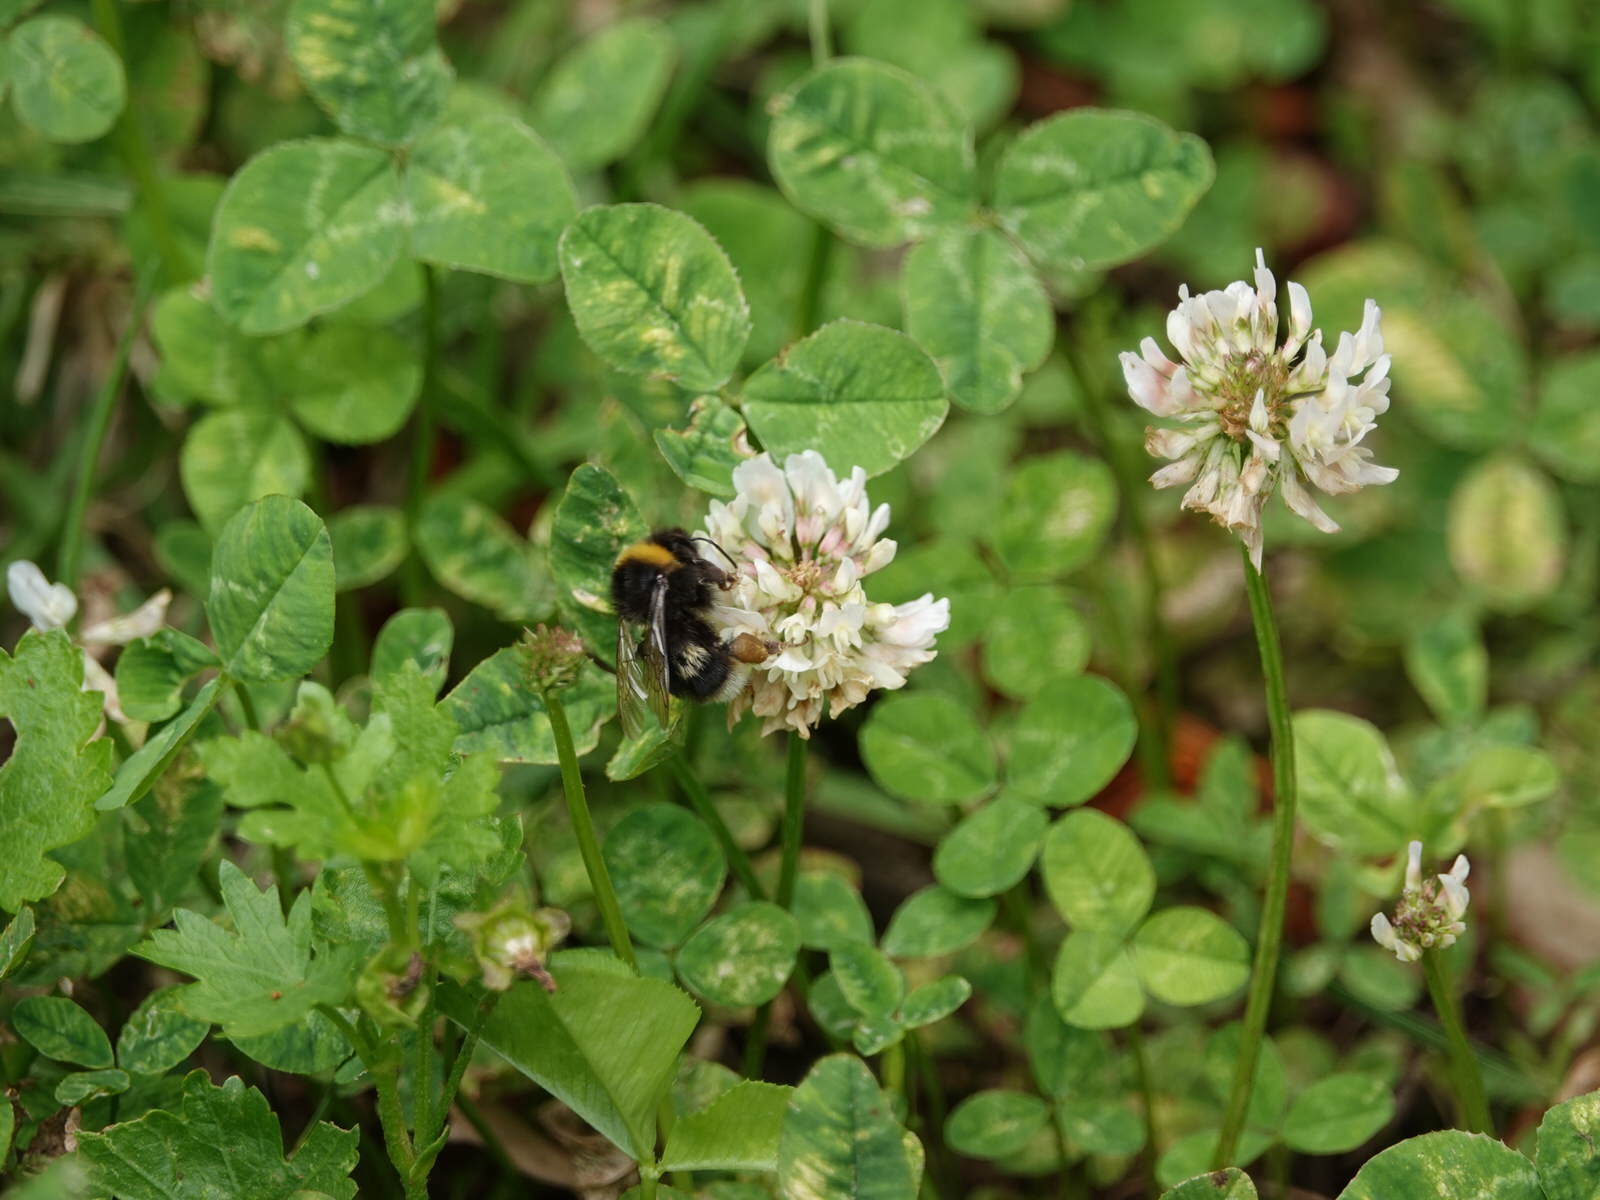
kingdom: Animalia
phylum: Arthropoda
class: Insecta
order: Hymenoptera
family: Apidae
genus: Bombus
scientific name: Bombus terrestris
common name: Buff-tailed bumblebee
